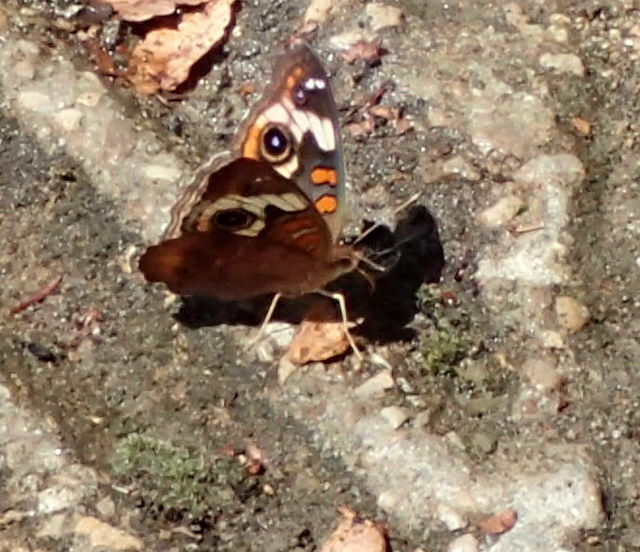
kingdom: Animalia
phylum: Arthropoda
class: Insecta
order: Lepidoptera
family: Nymphalidae
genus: Junonia
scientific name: Junonia coenia
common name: Common buckeye
